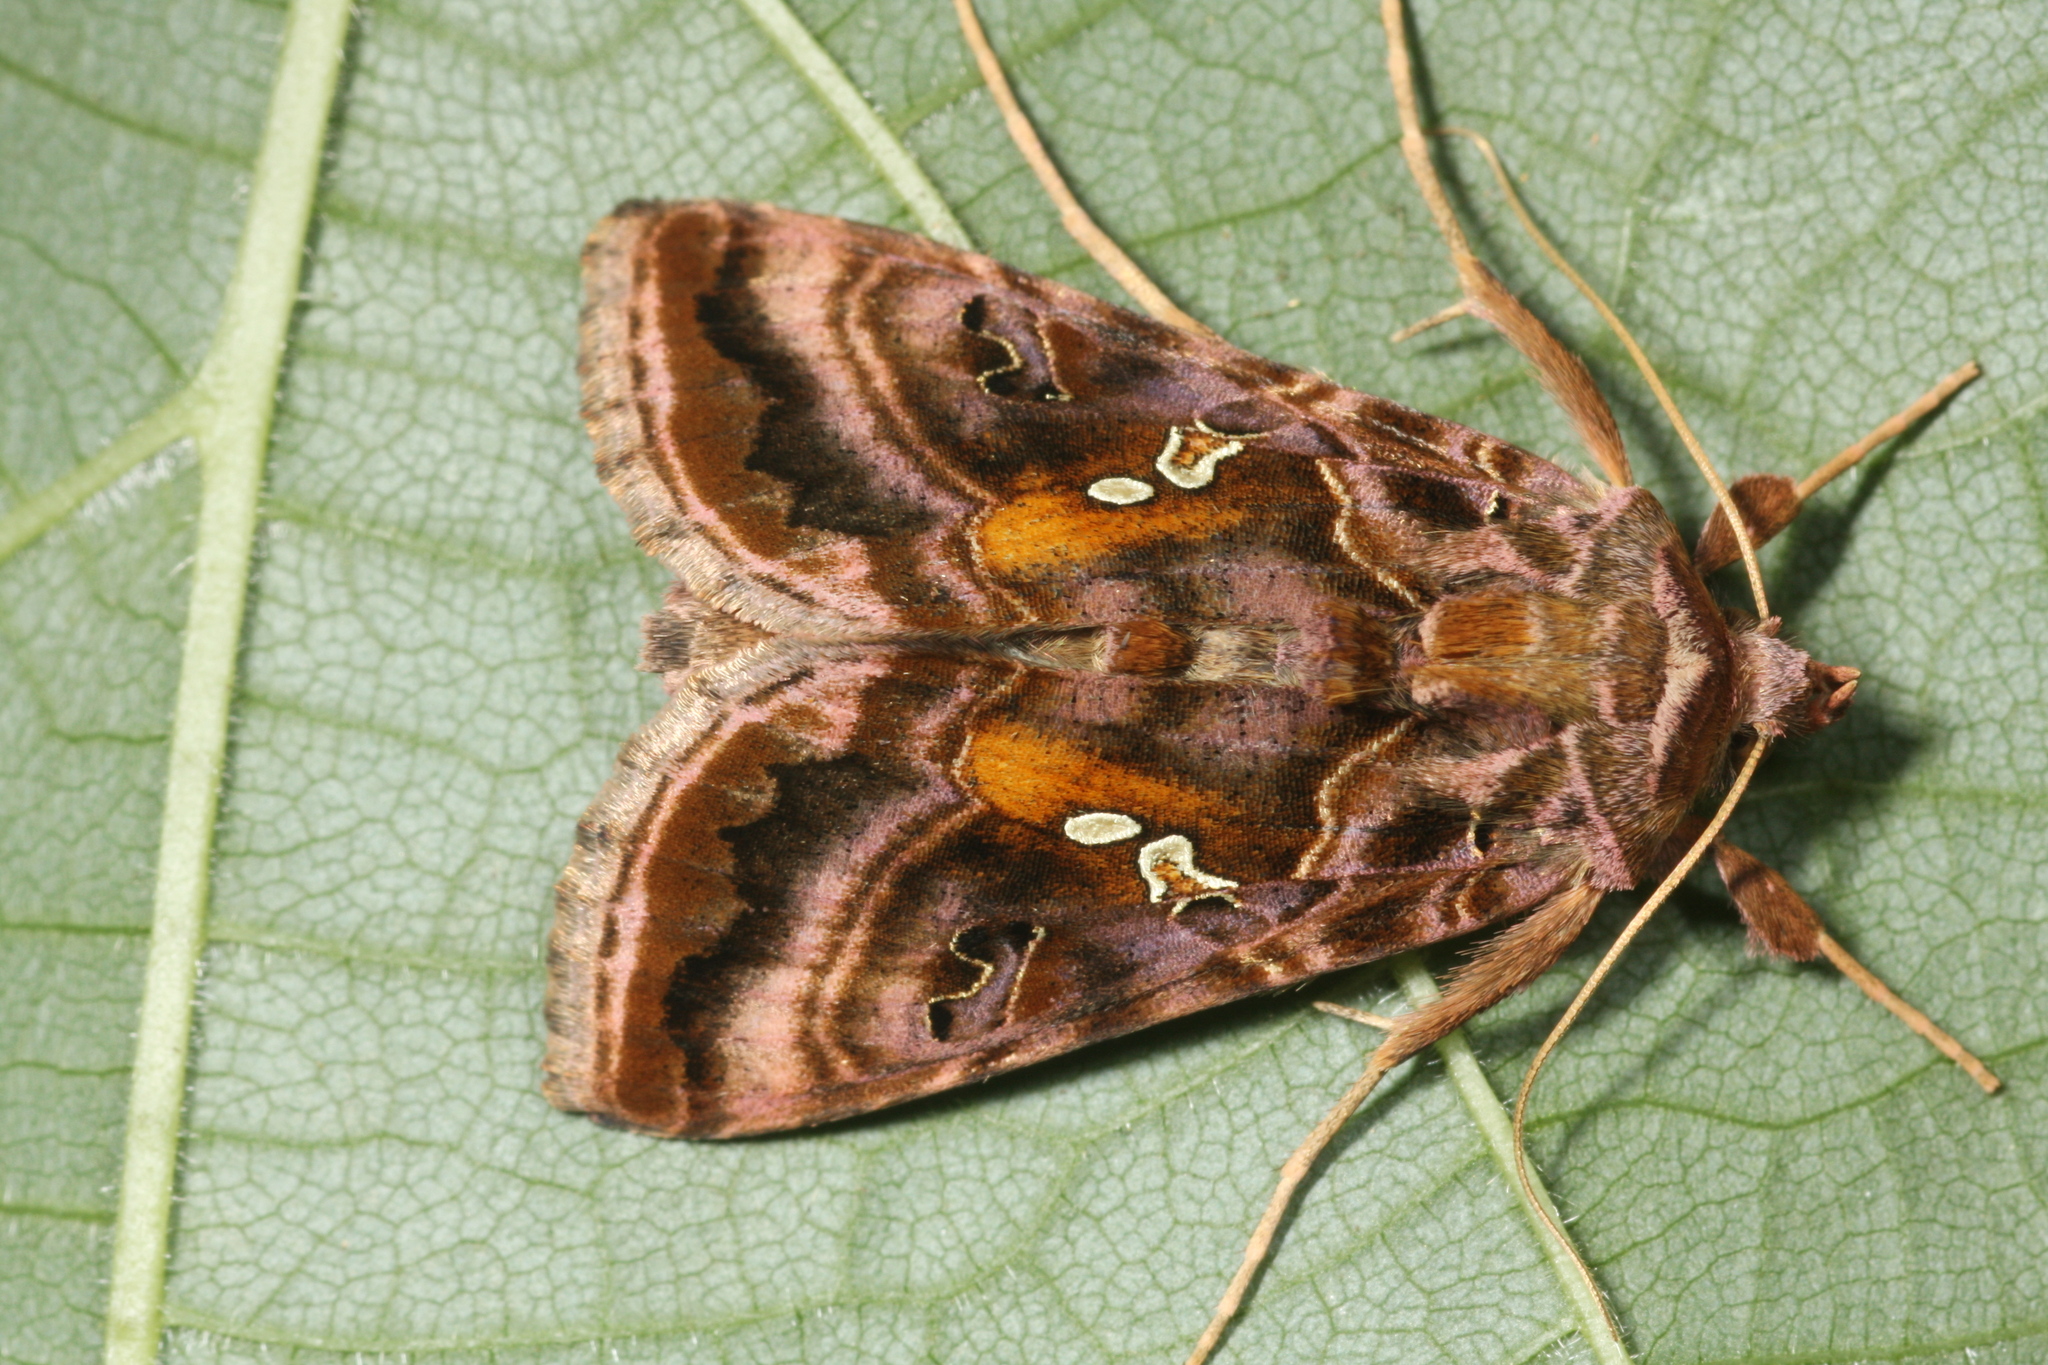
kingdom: Animalia
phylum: Arthropoda
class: Insecta
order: Lepidoptera
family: Noctuidae
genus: Autographa
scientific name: Autographa pulchrina
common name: Beautiful golden y
